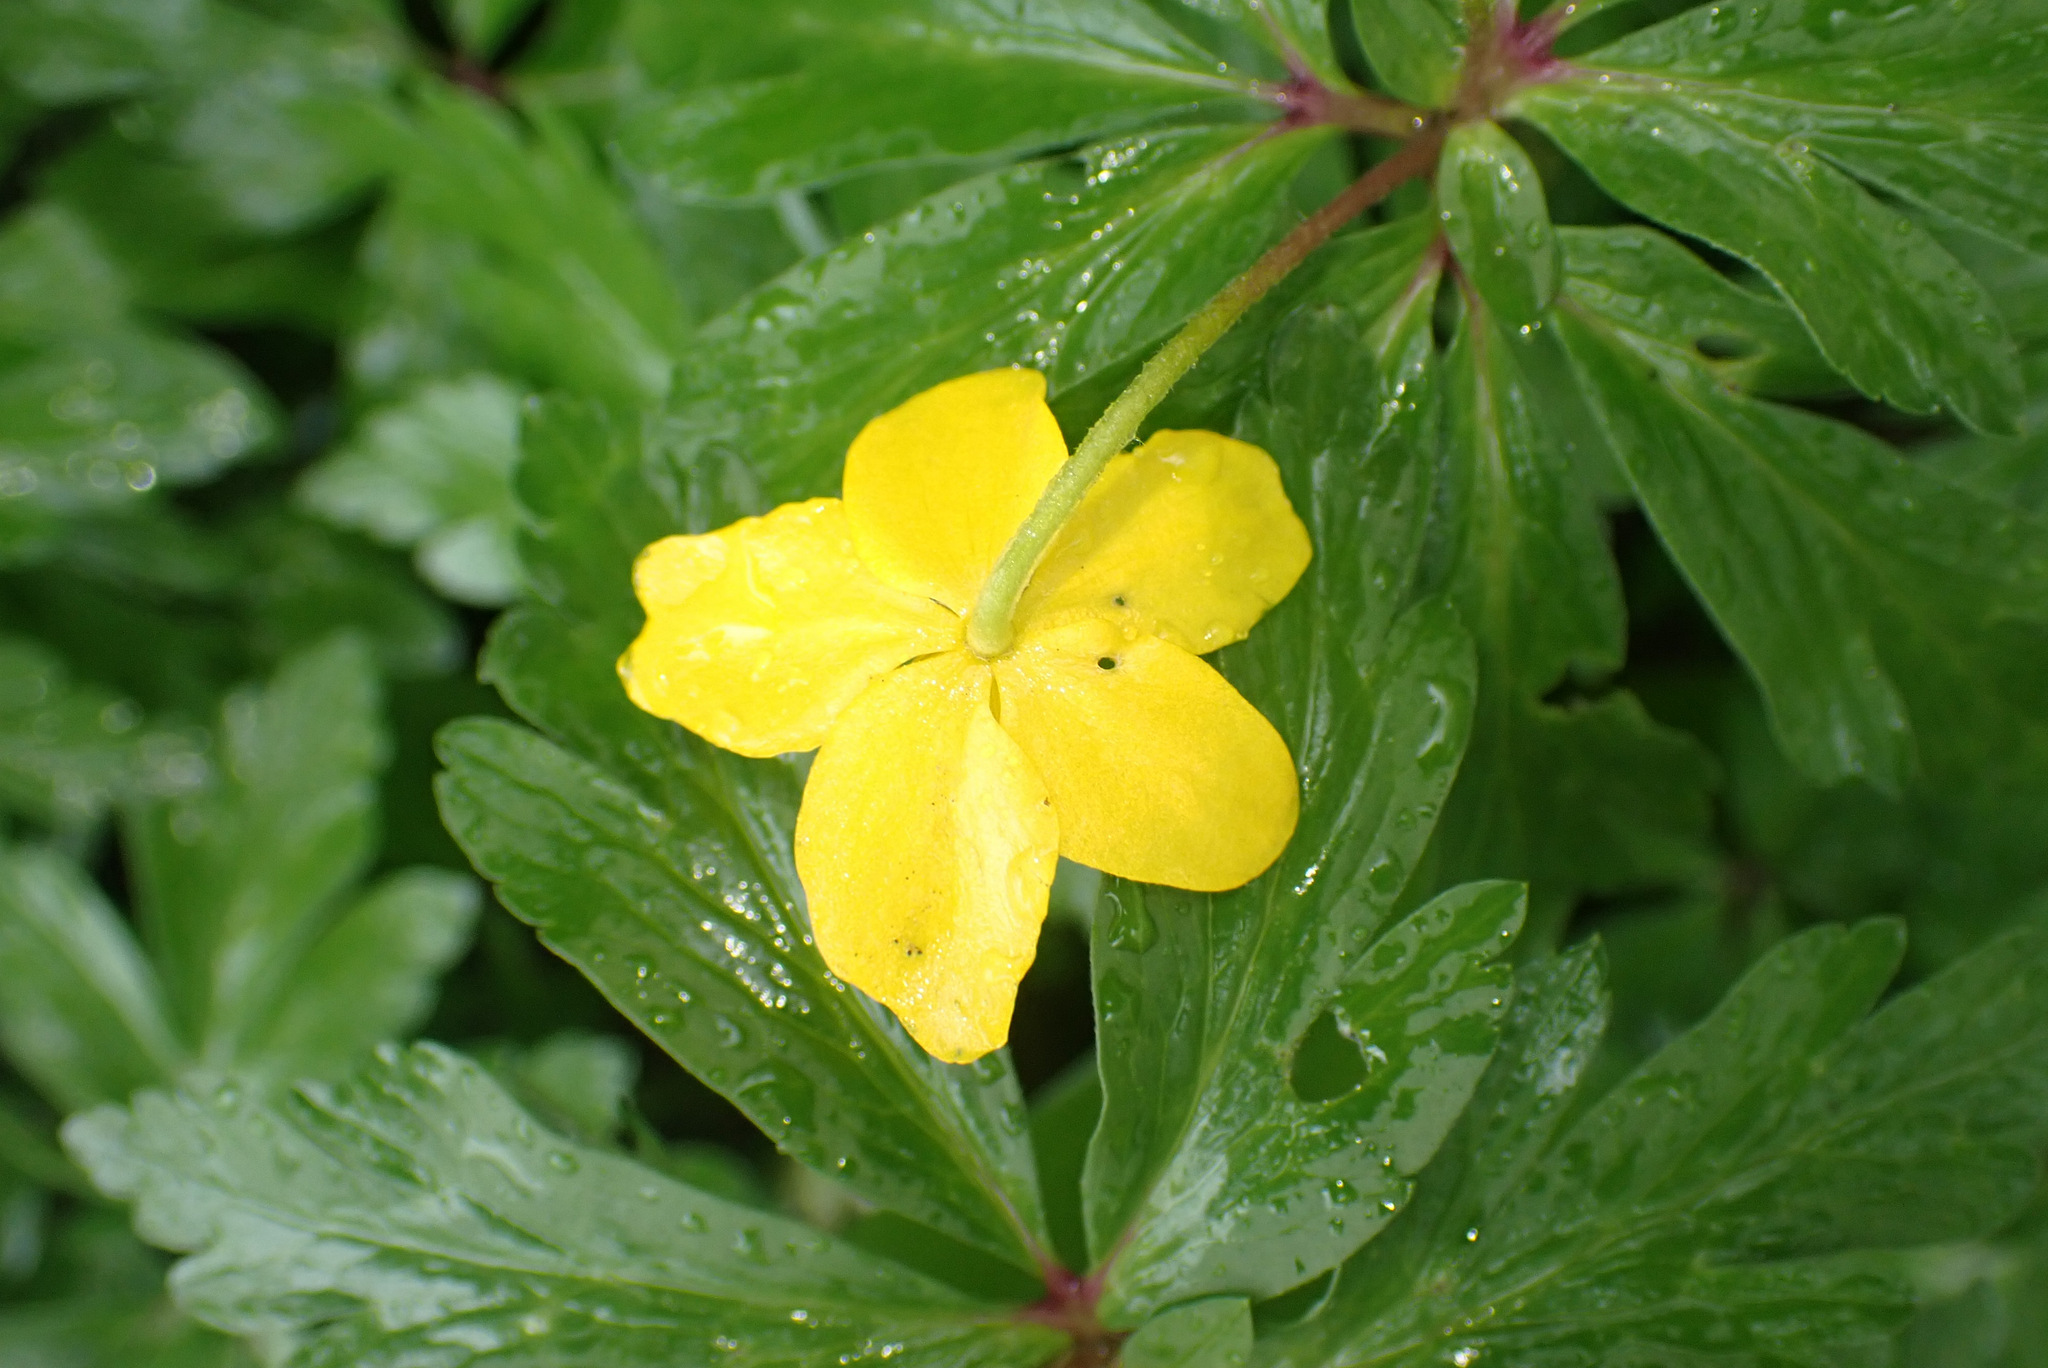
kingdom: Plantae
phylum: Tracheophyta
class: Magnoliopsida
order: Ranunculales
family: Ranunculaceae
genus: Anemone
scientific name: Anemone ranunculoides
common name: Yellow anemone
